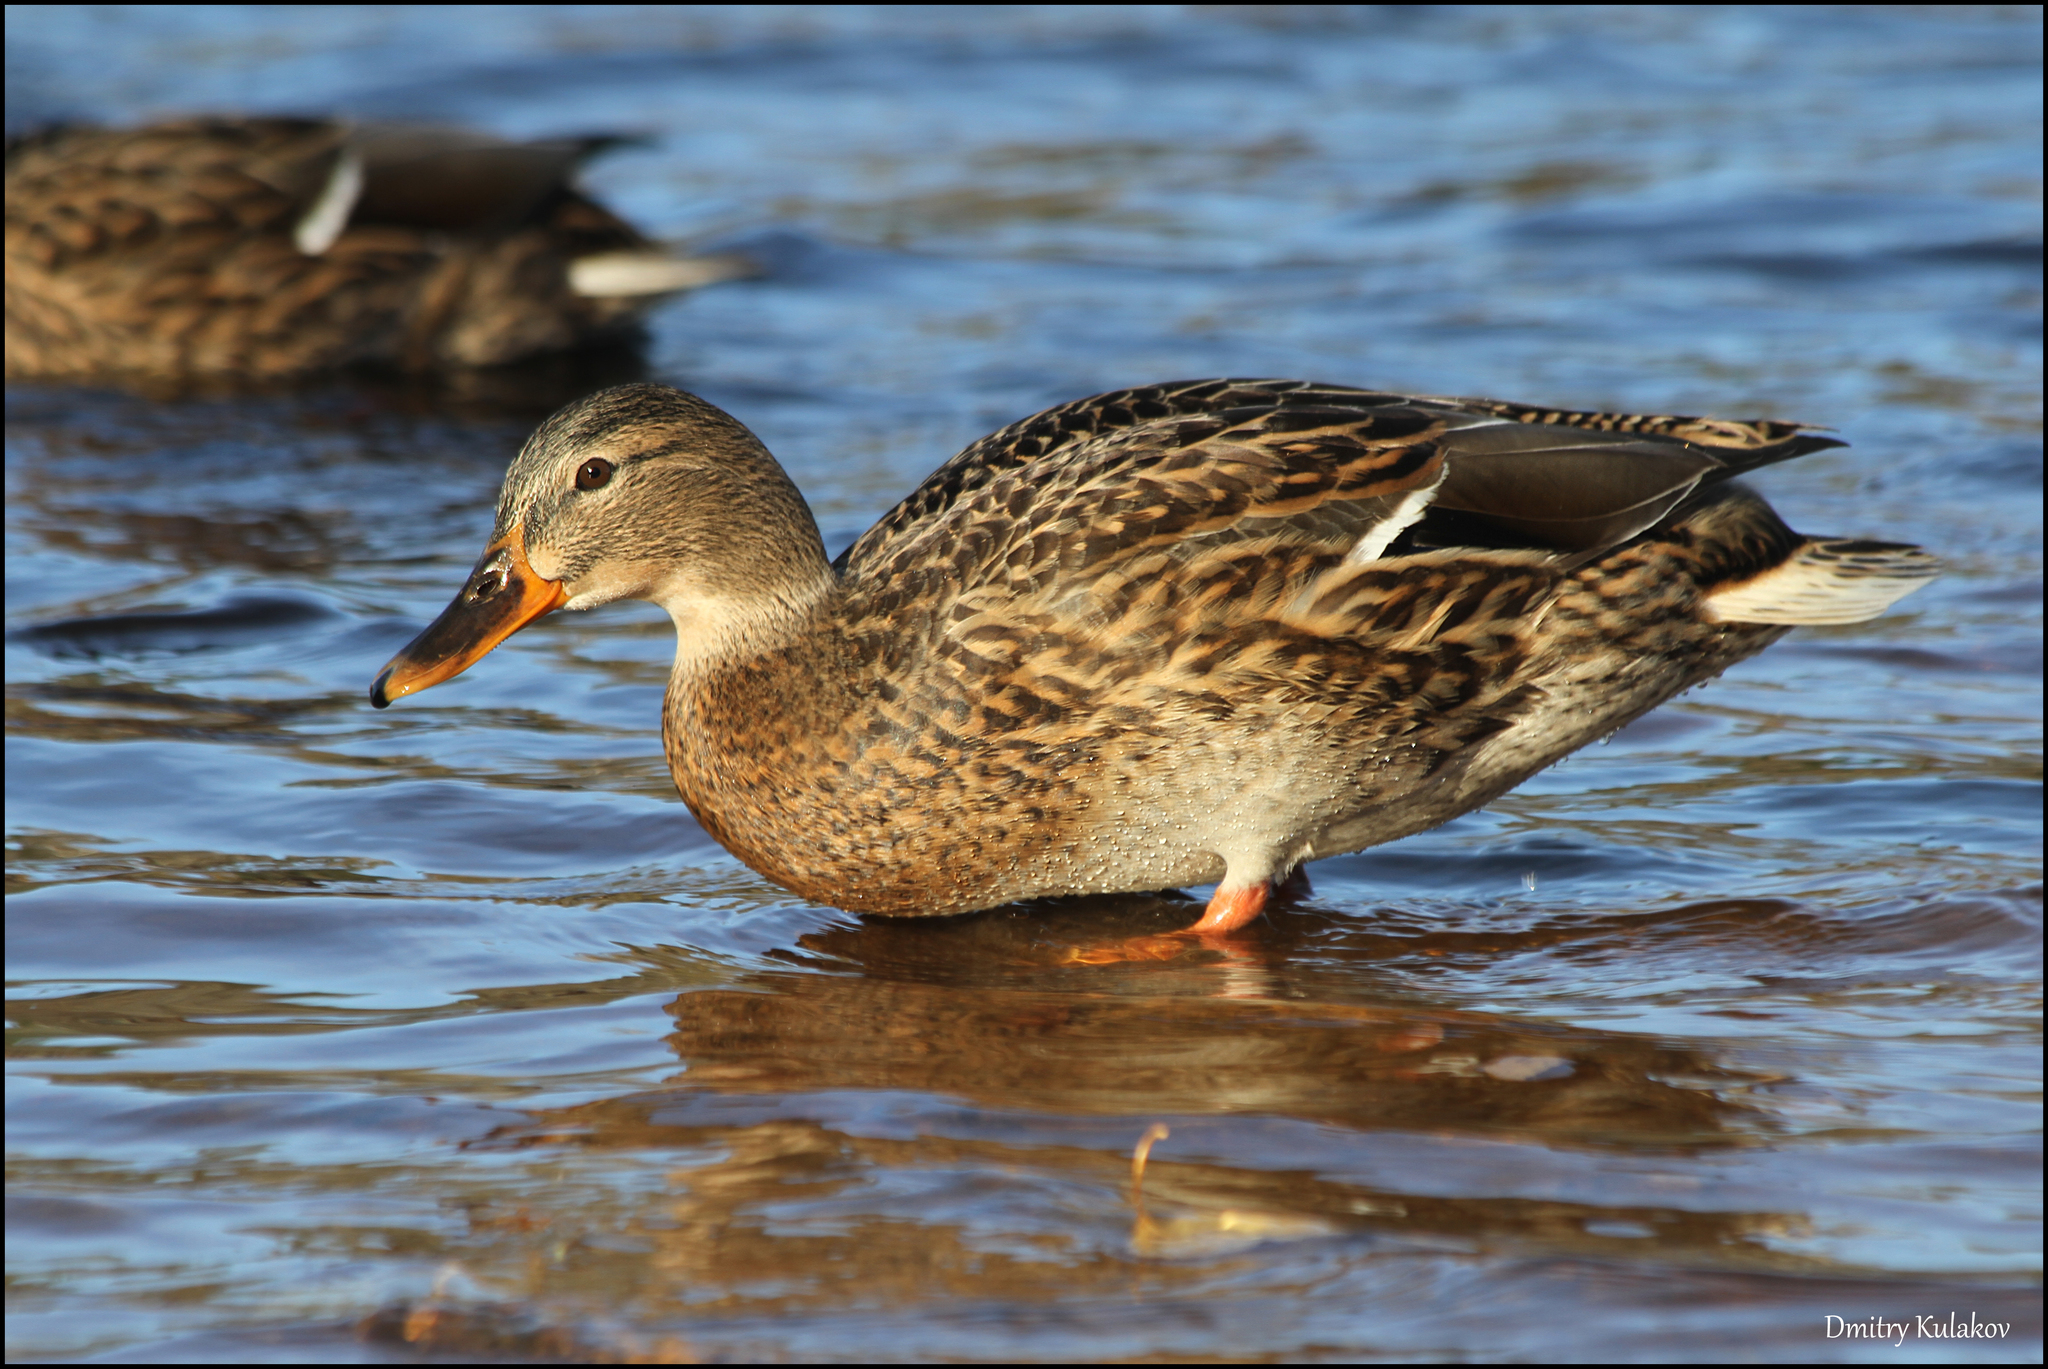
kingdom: Animalia
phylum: Chordata
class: Aves
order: Anseriformes
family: Anatidae
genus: Anas
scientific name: Anas platyrhynchos
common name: Mallard
